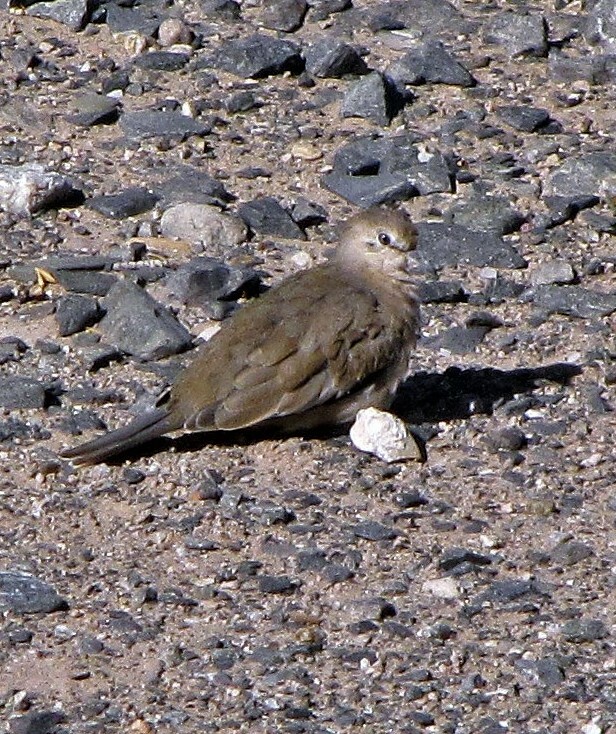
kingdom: Animalia
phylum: Chordata
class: Aves
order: Columbiformes
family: Columbidae
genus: Columbina
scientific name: Columbina picui
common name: Picui ground dove
